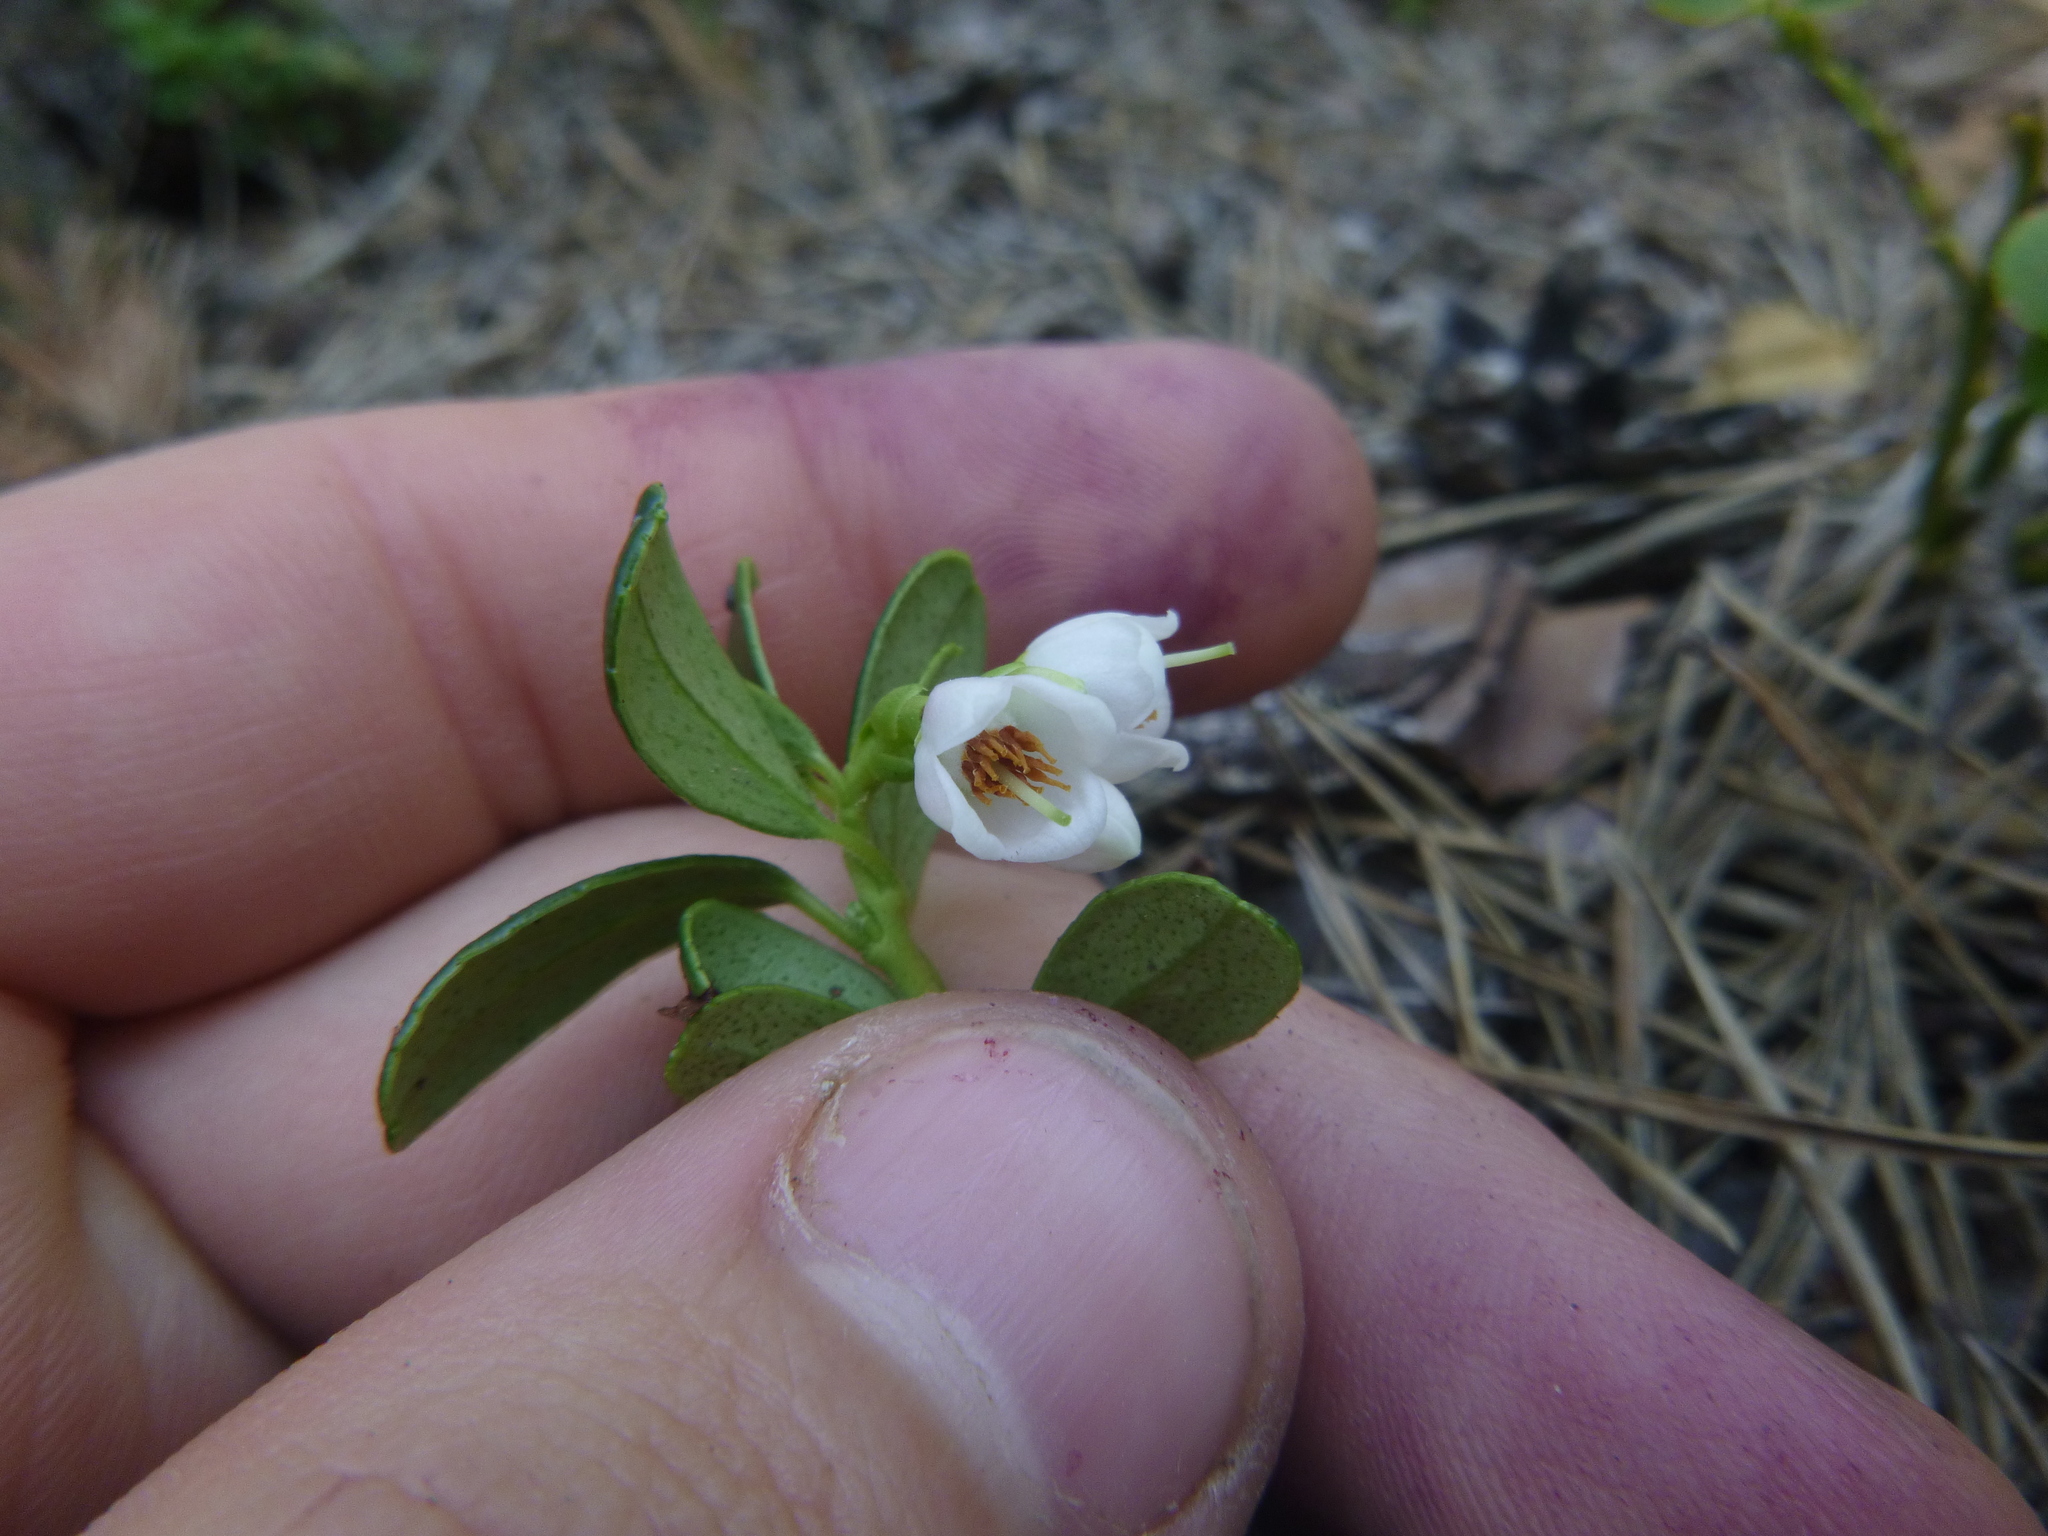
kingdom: Plantae
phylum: Tracheophyta
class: Magnoliopsida
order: Ericales
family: Ericaceae
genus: Vaccinium
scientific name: Vaccinium vitis-idaea
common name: Cowberry
